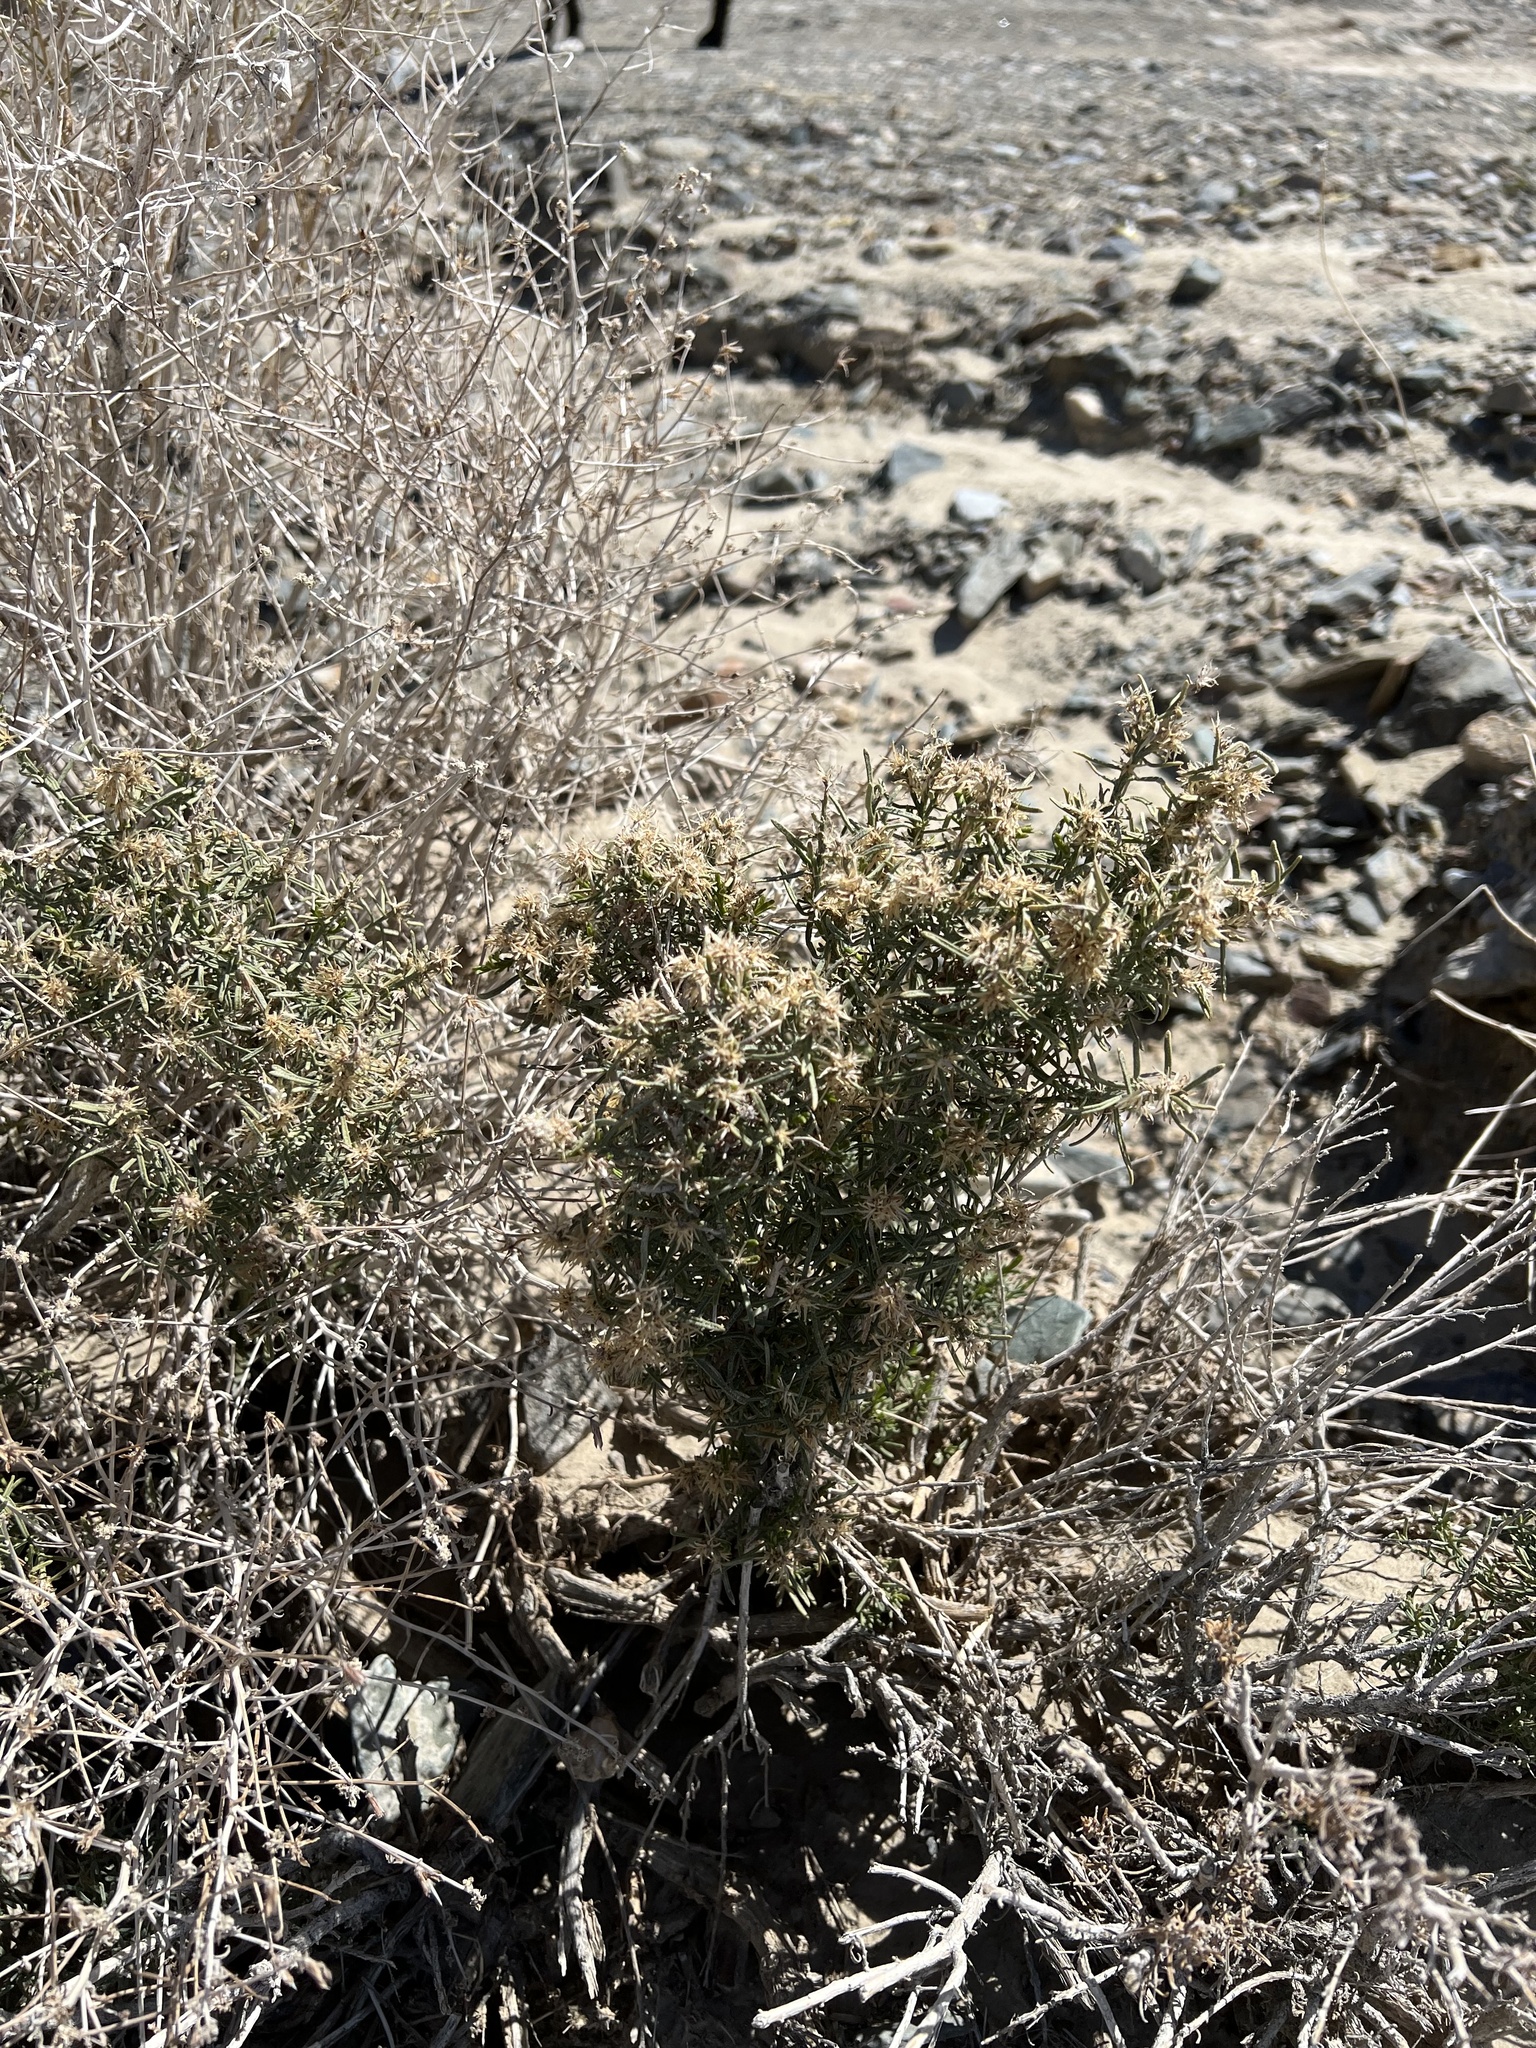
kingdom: Plantae
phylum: Tracheophyta
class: Magnoliopsida
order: Asterales
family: Asteraceae
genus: Ericameria
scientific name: Ericameria teretifolia
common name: Round-leaf rabbitbrush
